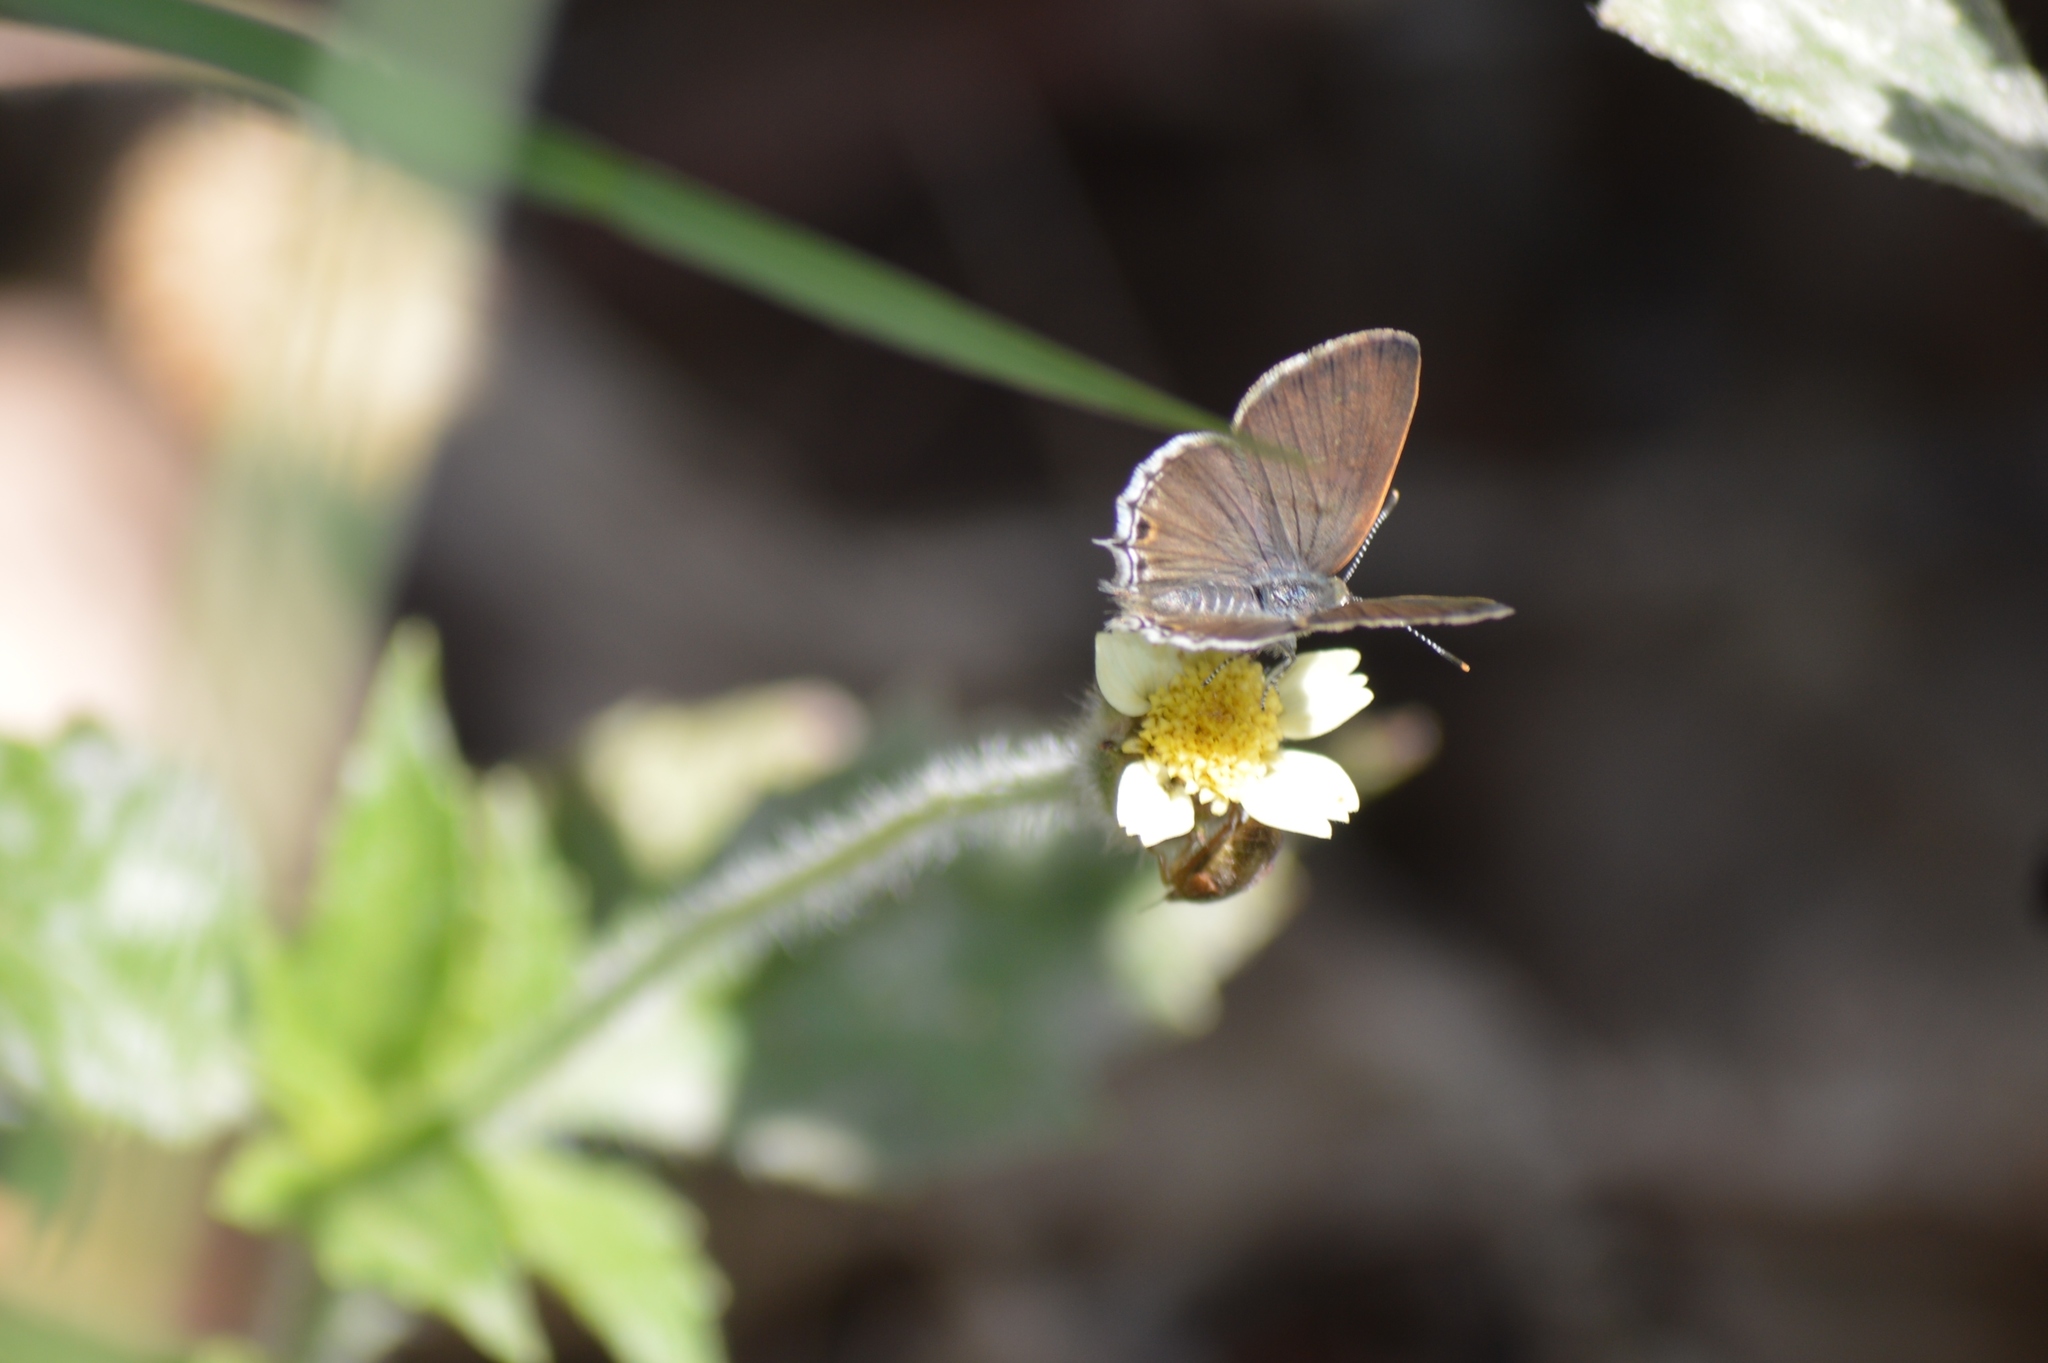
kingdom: Animalia
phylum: Arthropoda
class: Insecta
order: Lepidoptera
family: Lycaenidae
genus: Thecla
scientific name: Thecla rufofusca
